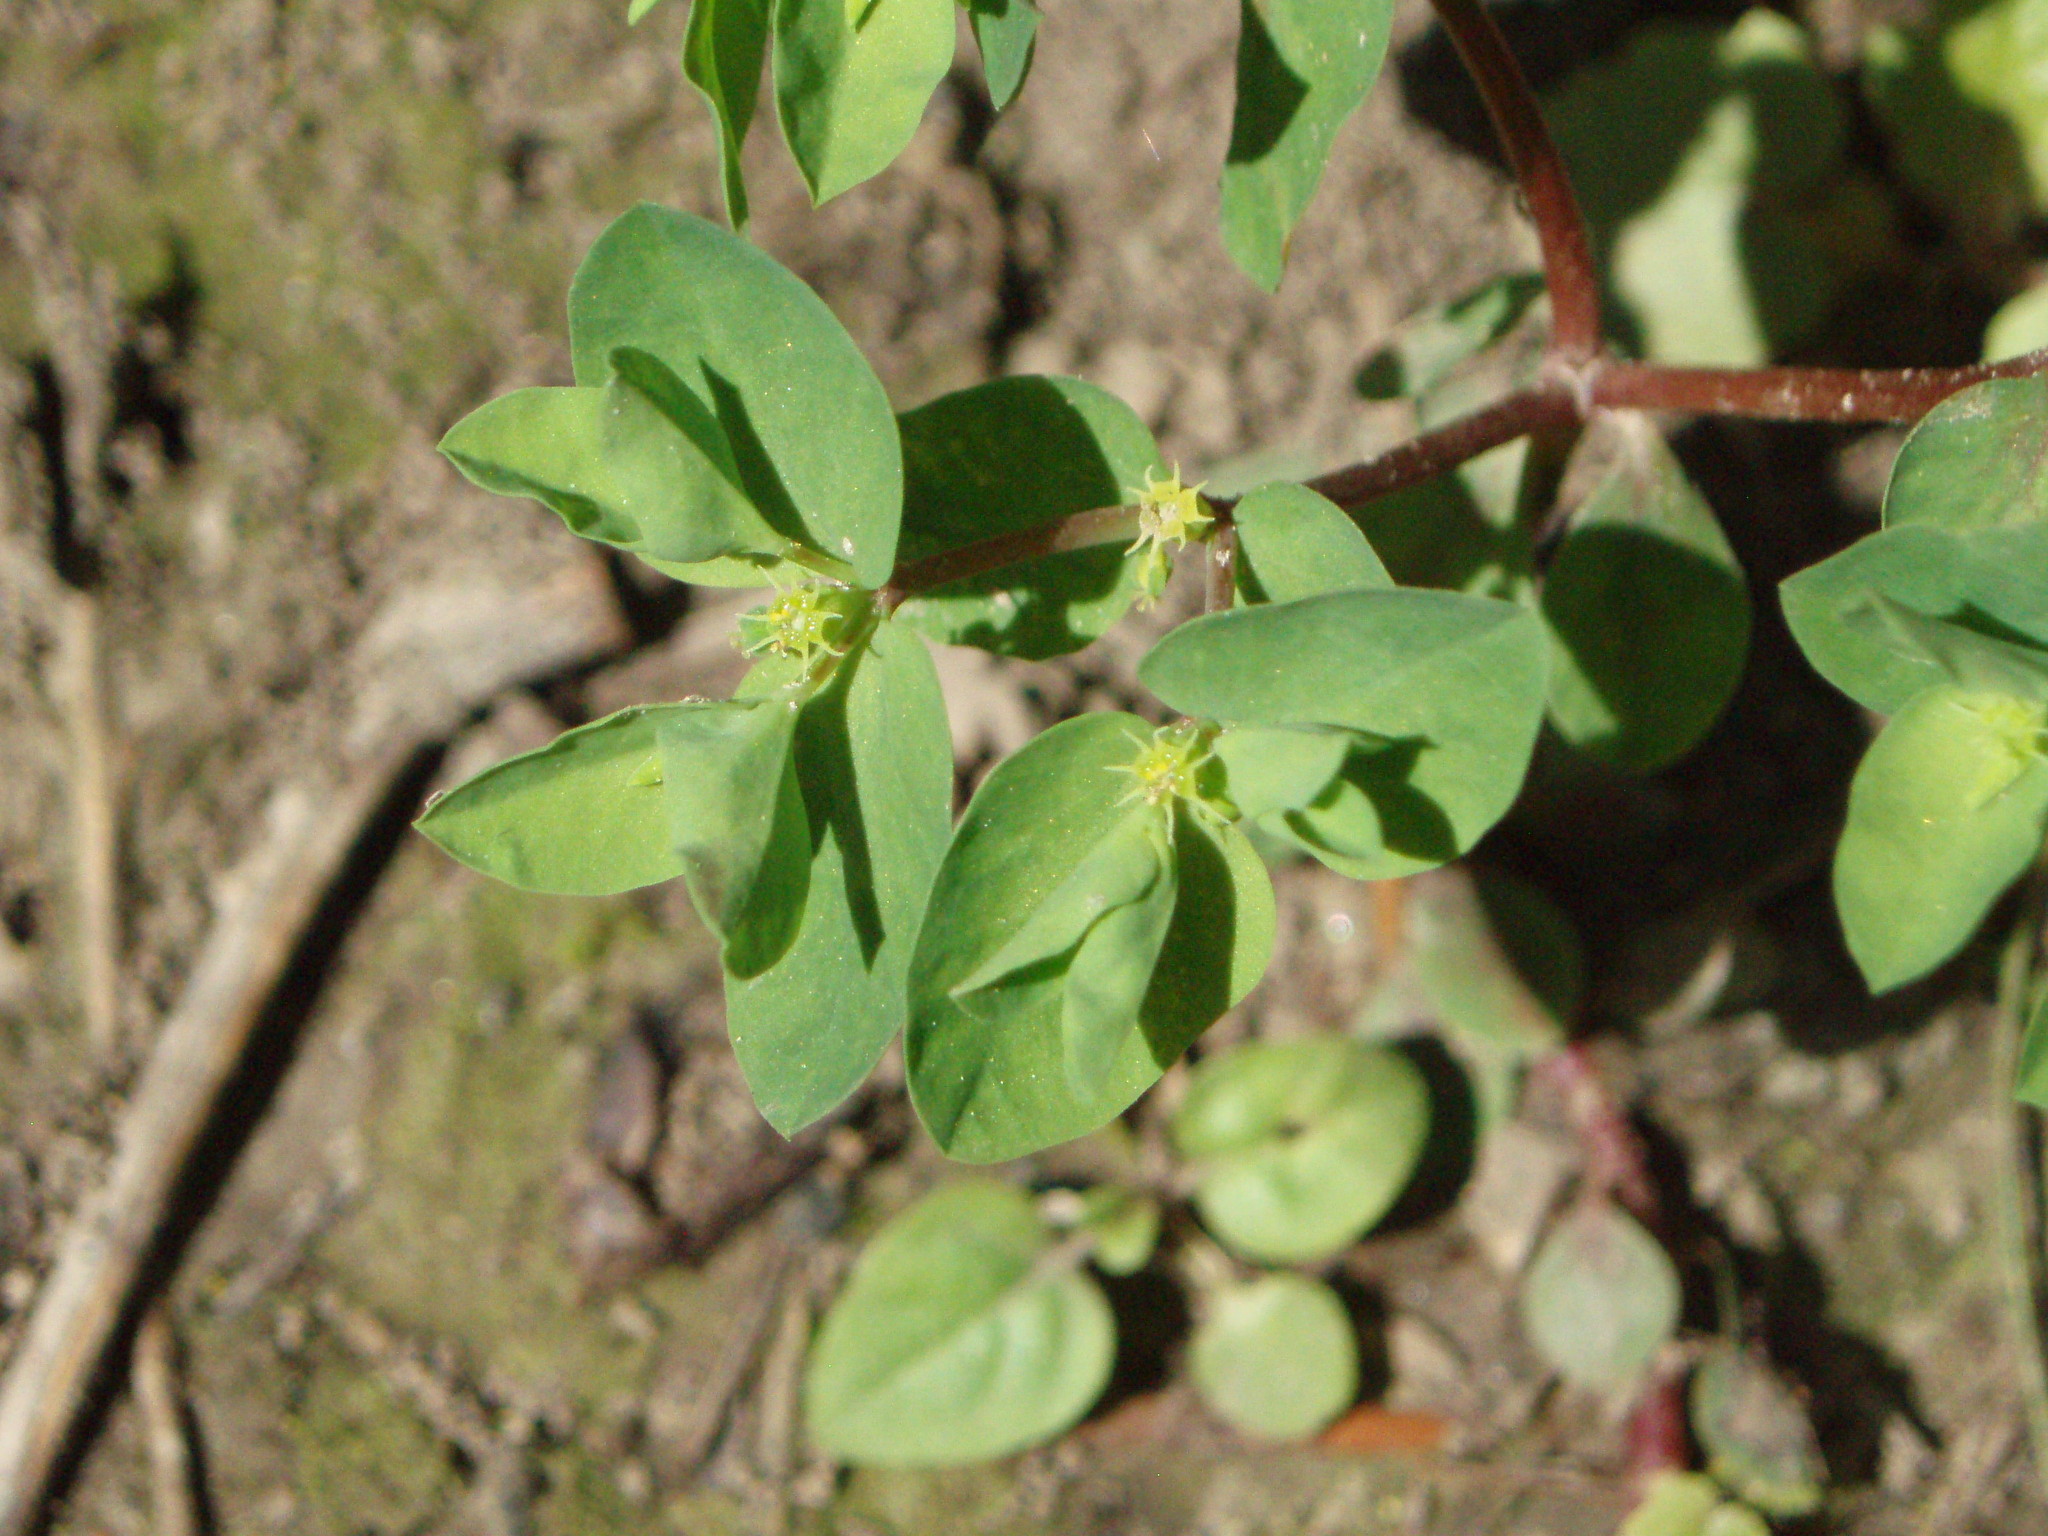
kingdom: Plantae
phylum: Tracheophyta
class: Magnoliopsida
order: Malpighiales
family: Euphorbiaceae
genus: Euphorbia
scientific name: Euphorbia peplus
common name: Petty spurge
